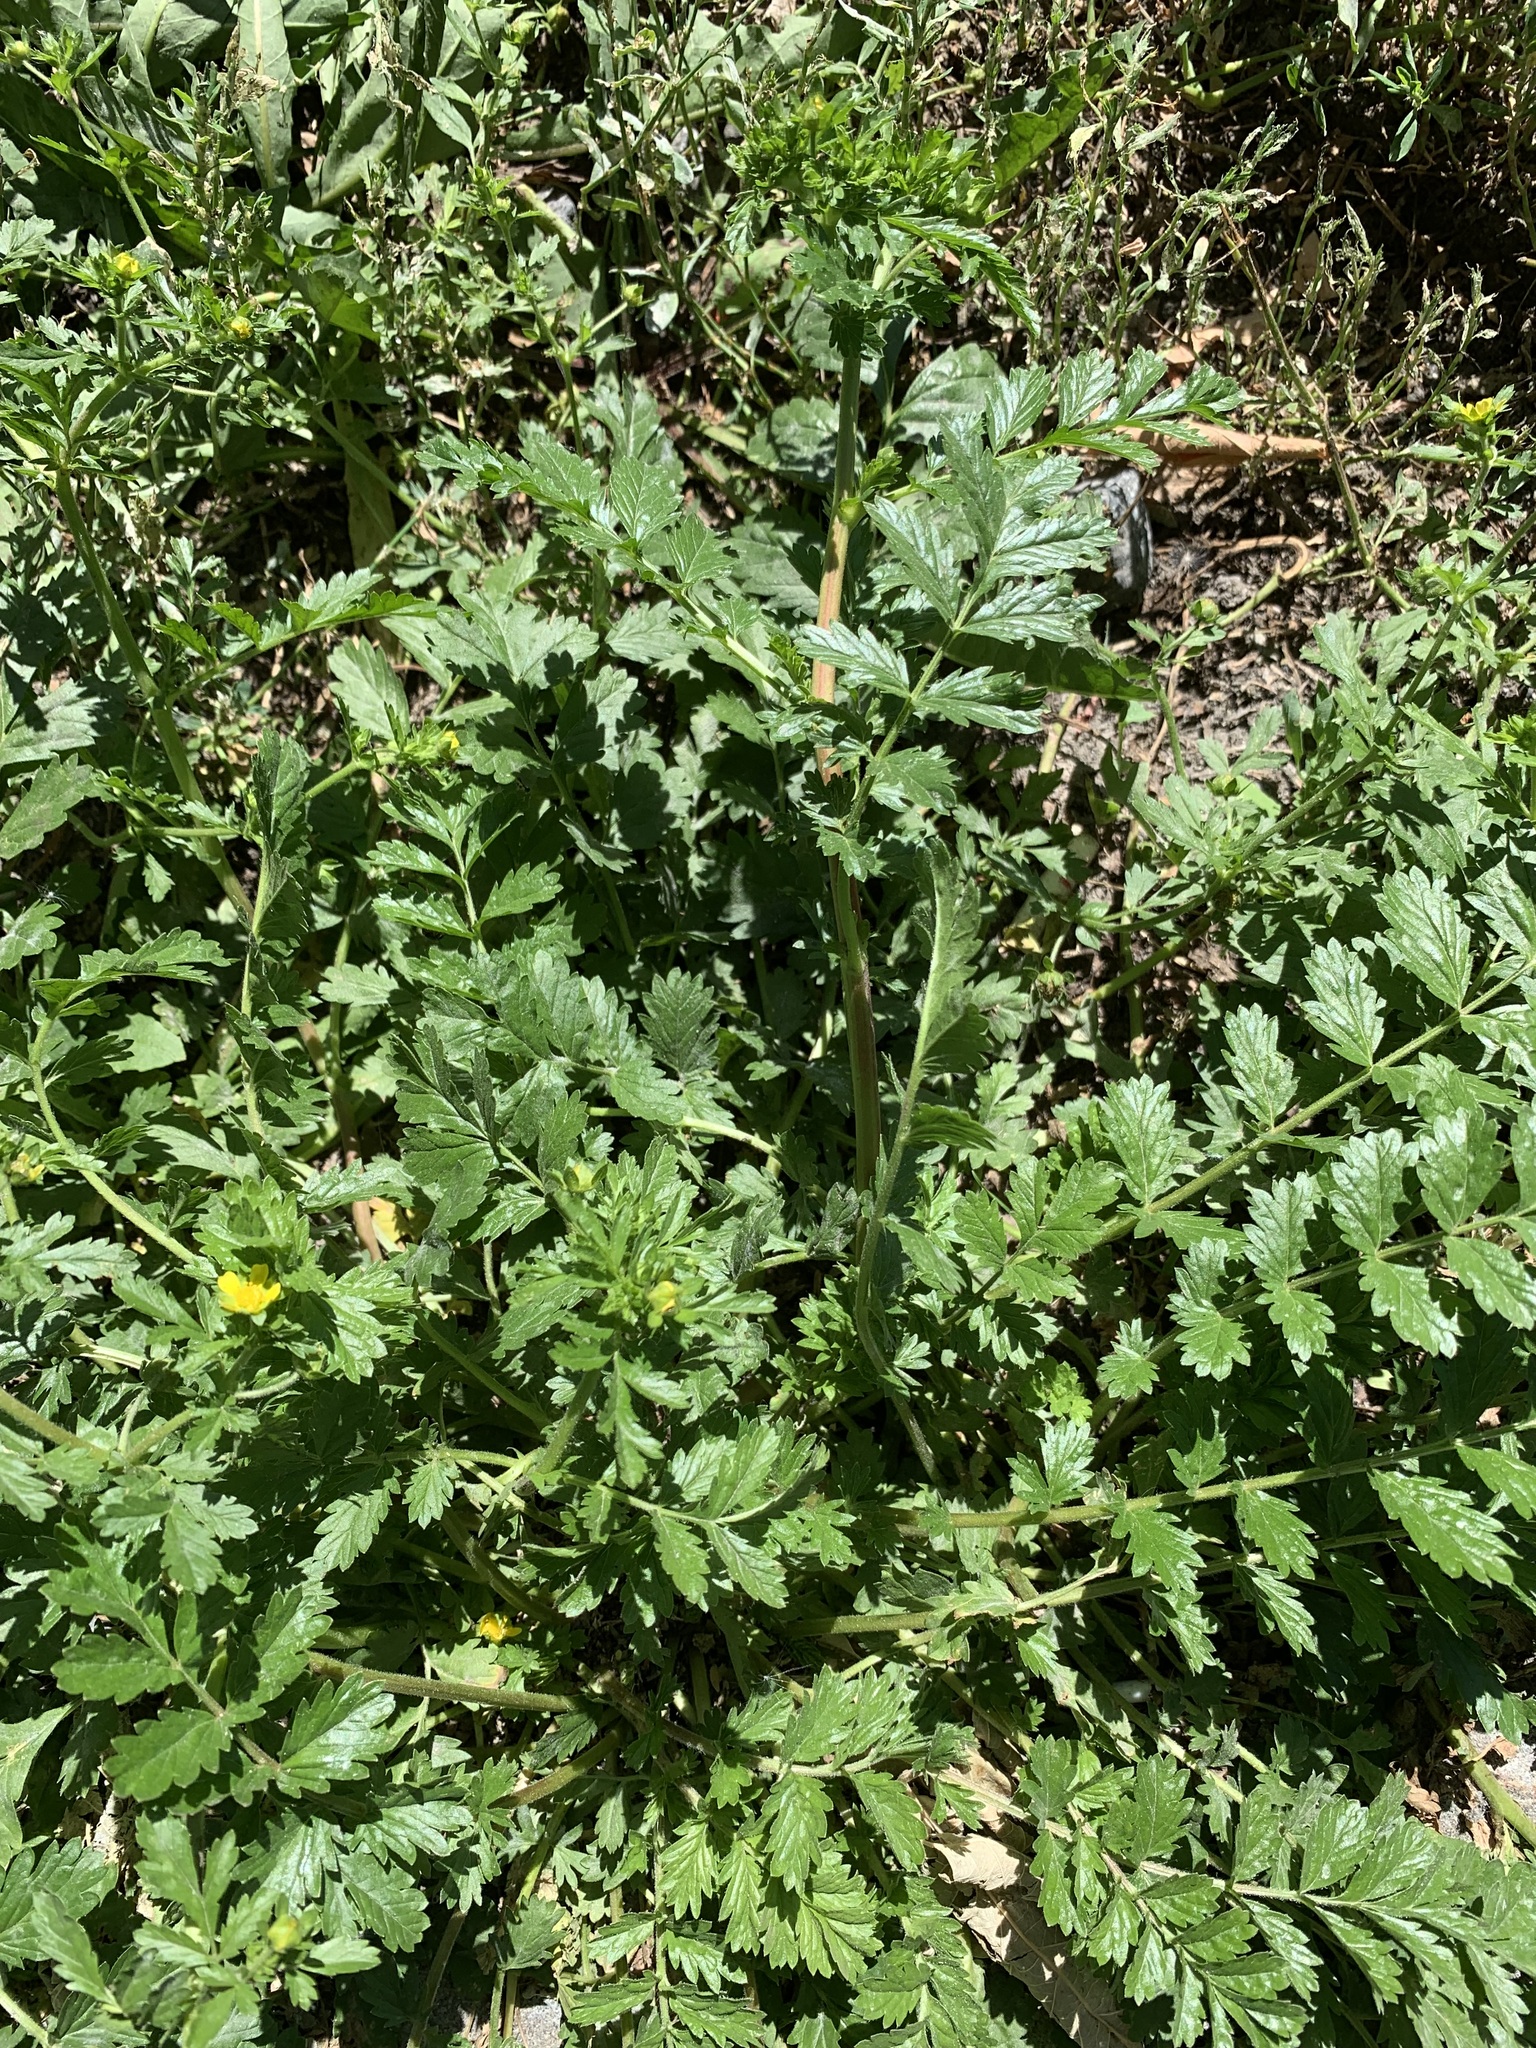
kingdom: Plantae
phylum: Tracheophyta
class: Magnoliopsida
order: Rosales
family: Rosaceae
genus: Potentilla
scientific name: Potentilla supina
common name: Prostrate cinquefoil
